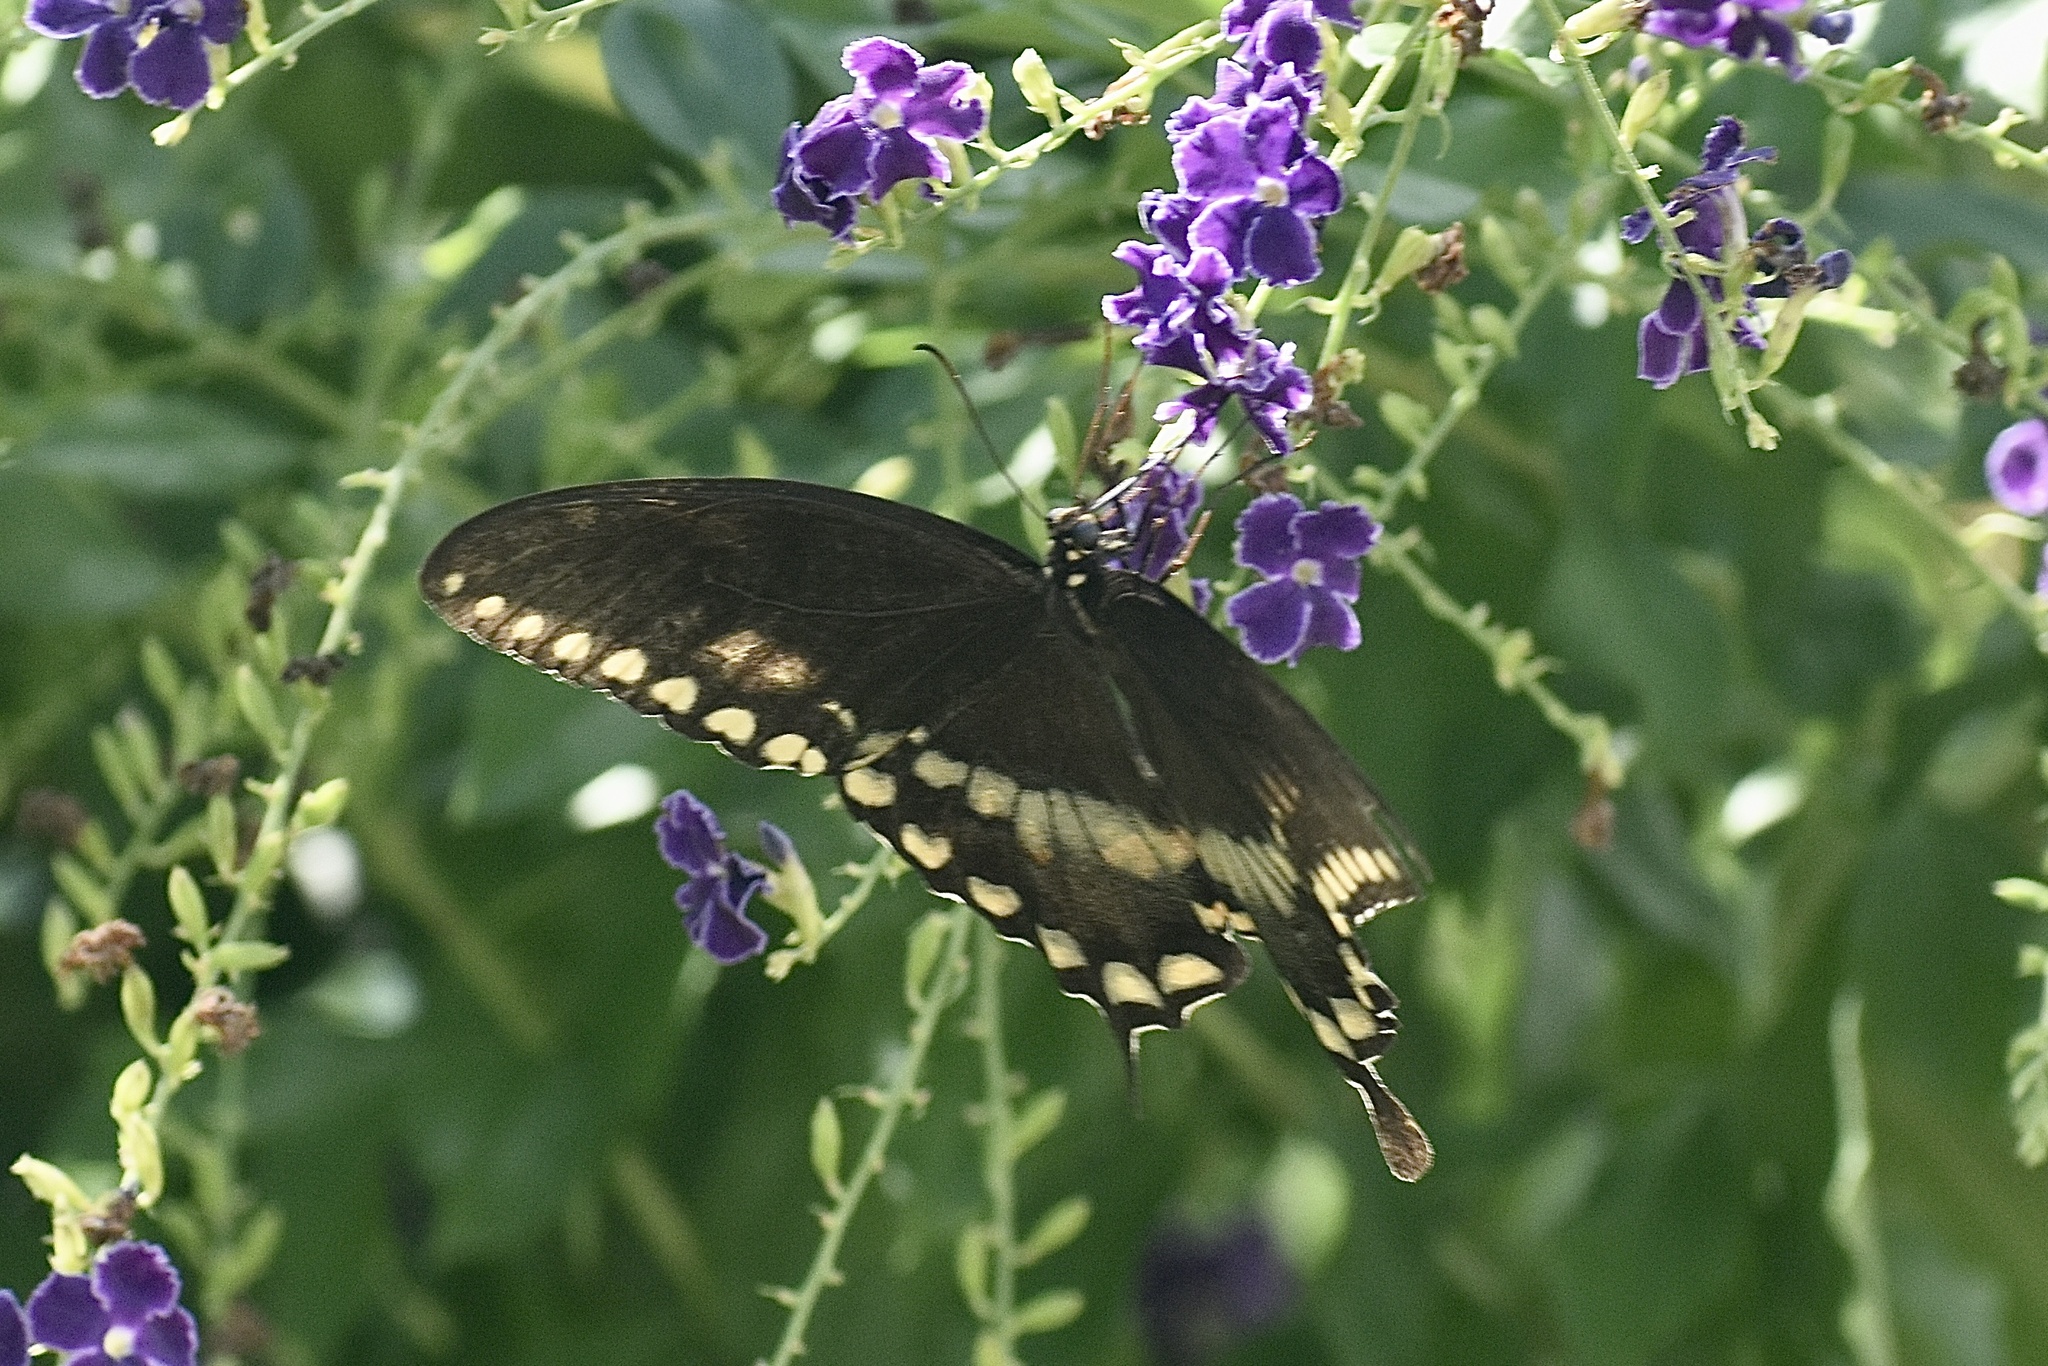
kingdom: Animalia
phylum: Arthropoda
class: Insecta
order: Lepidoptera
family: Papilionidae
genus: Papilio
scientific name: Papilio troilus
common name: Spicebush swallowtail
